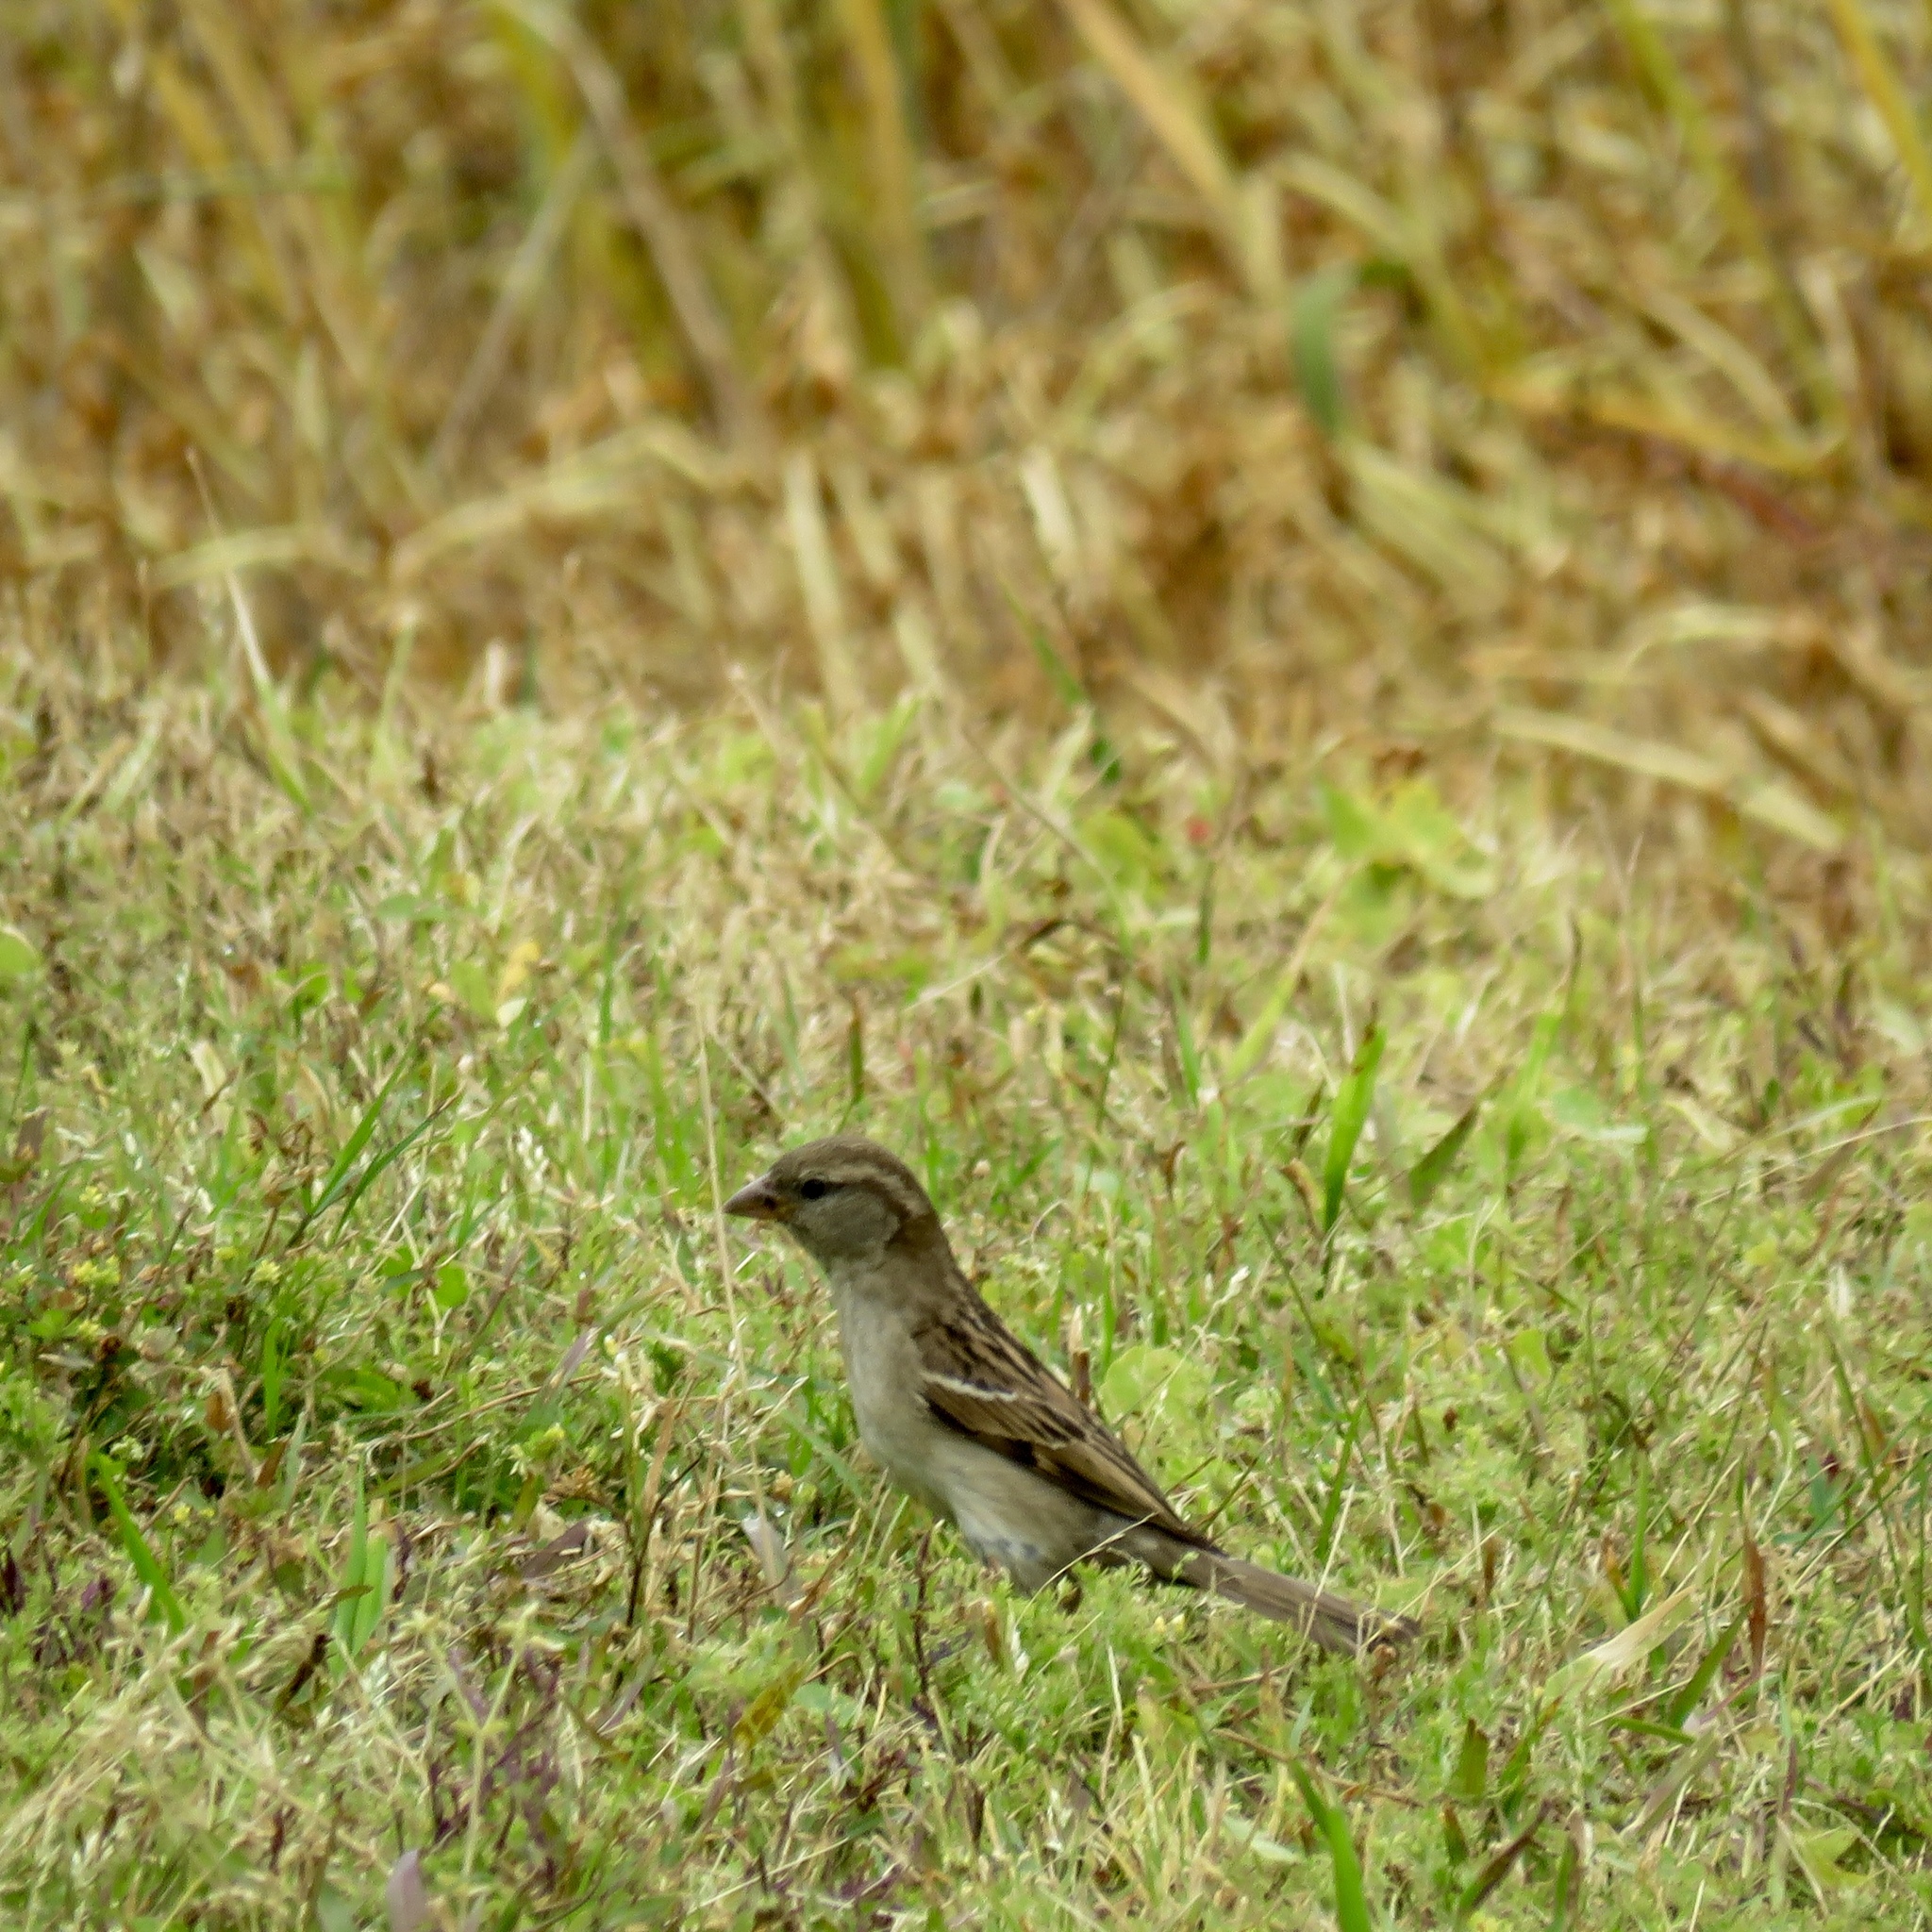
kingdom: Animalia
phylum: Chordata
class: Aves
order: Passeriformes
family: Passeridae
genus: Passer
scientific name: Passer domesticus
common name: House sparrow
